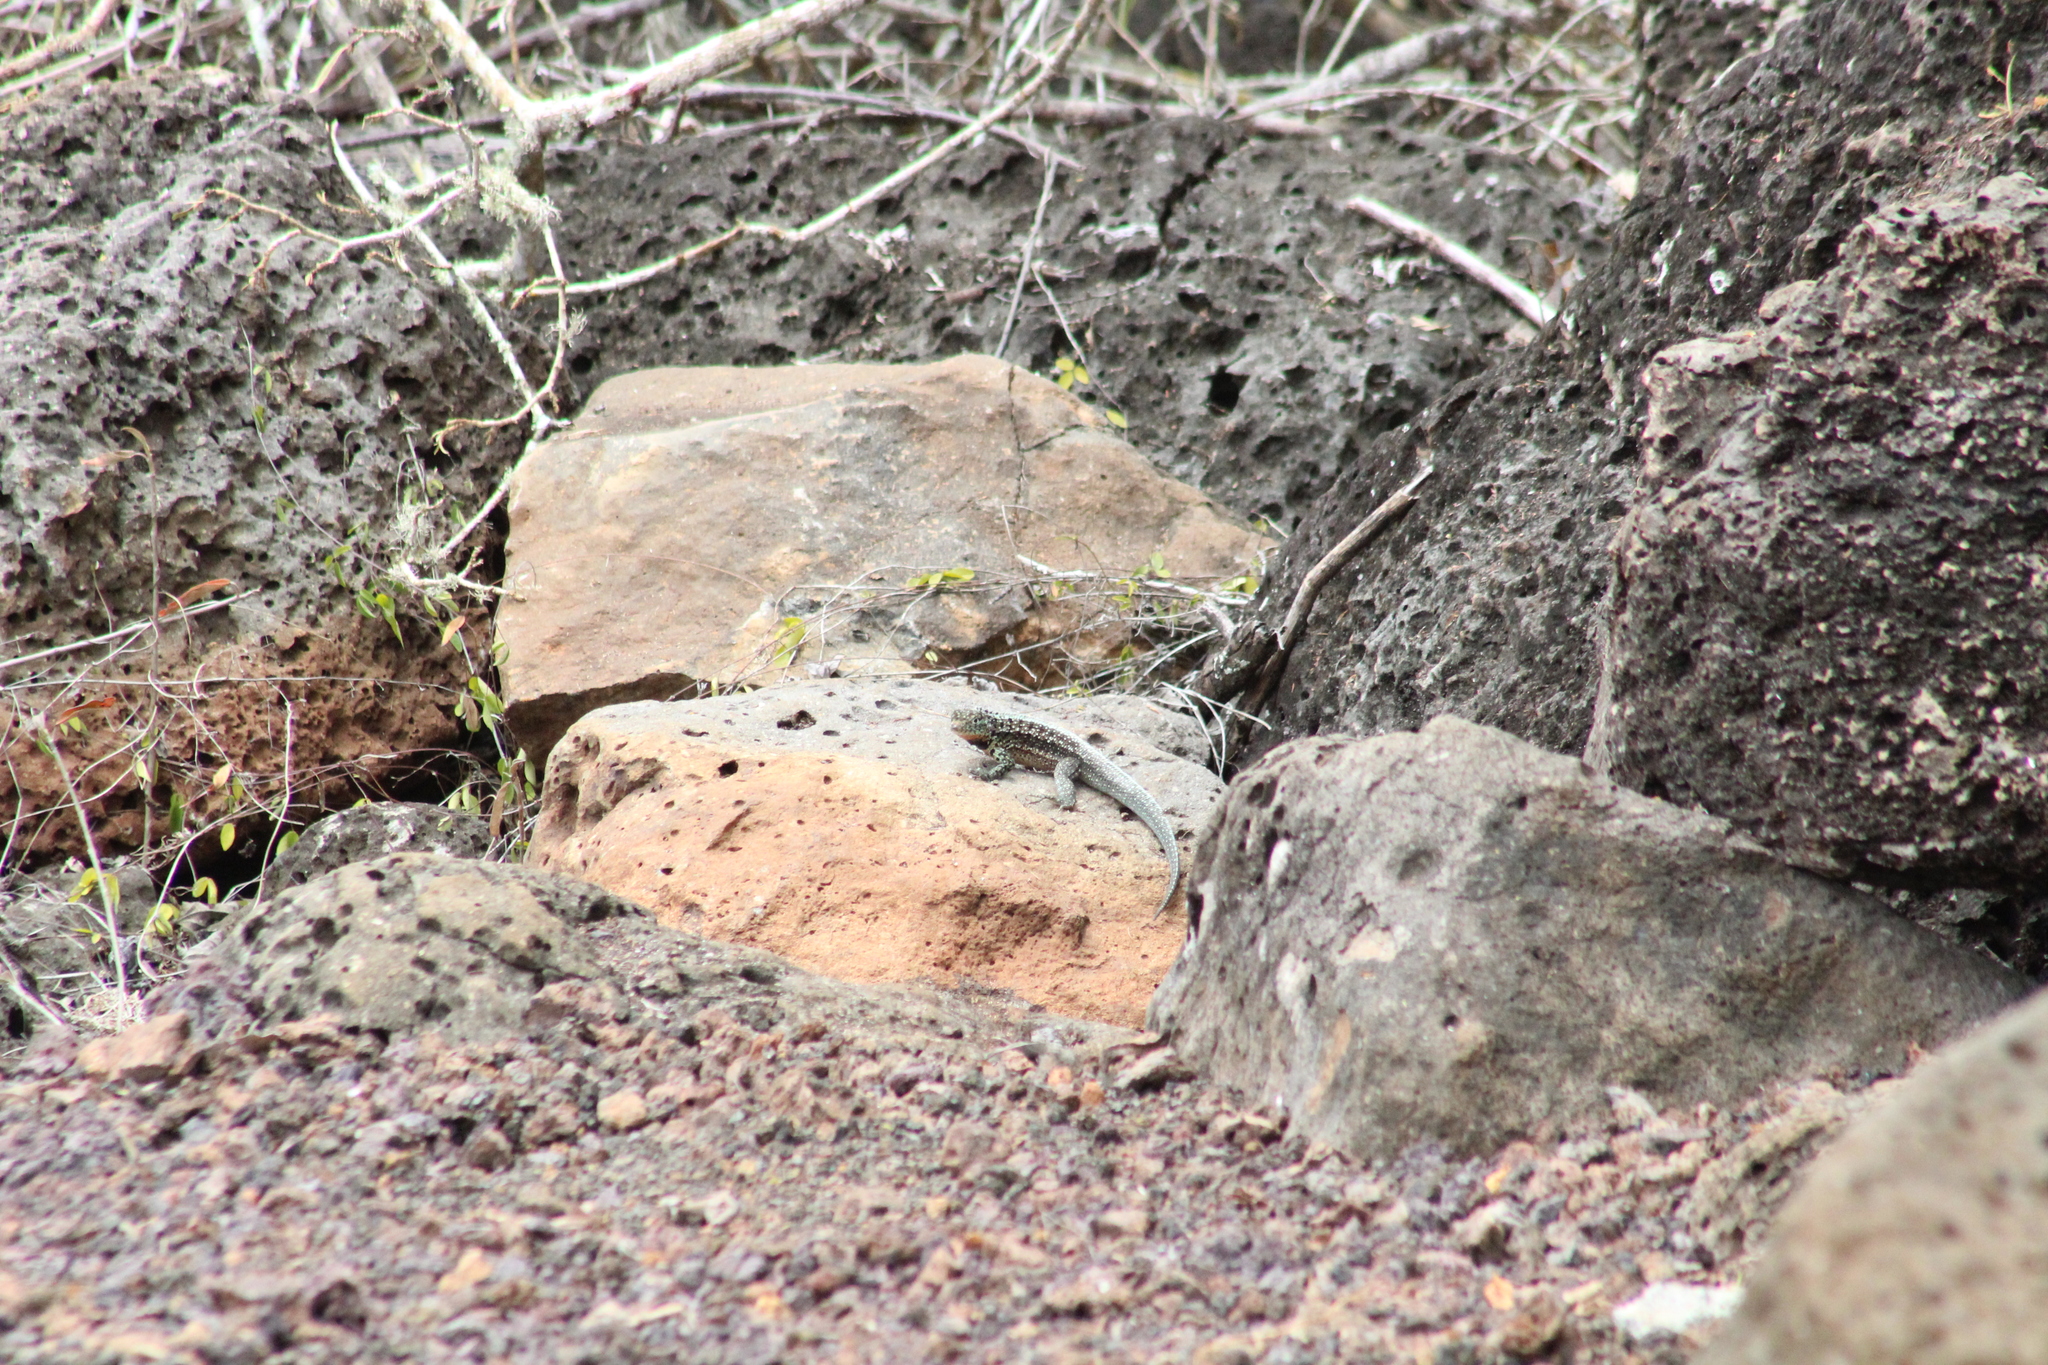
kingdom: Animalia
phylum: Chordata
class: Squamata
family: Tropiduridae
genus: Microlophus
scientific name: Microlophus indefatigabilis
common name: Galapagos lava lizard
